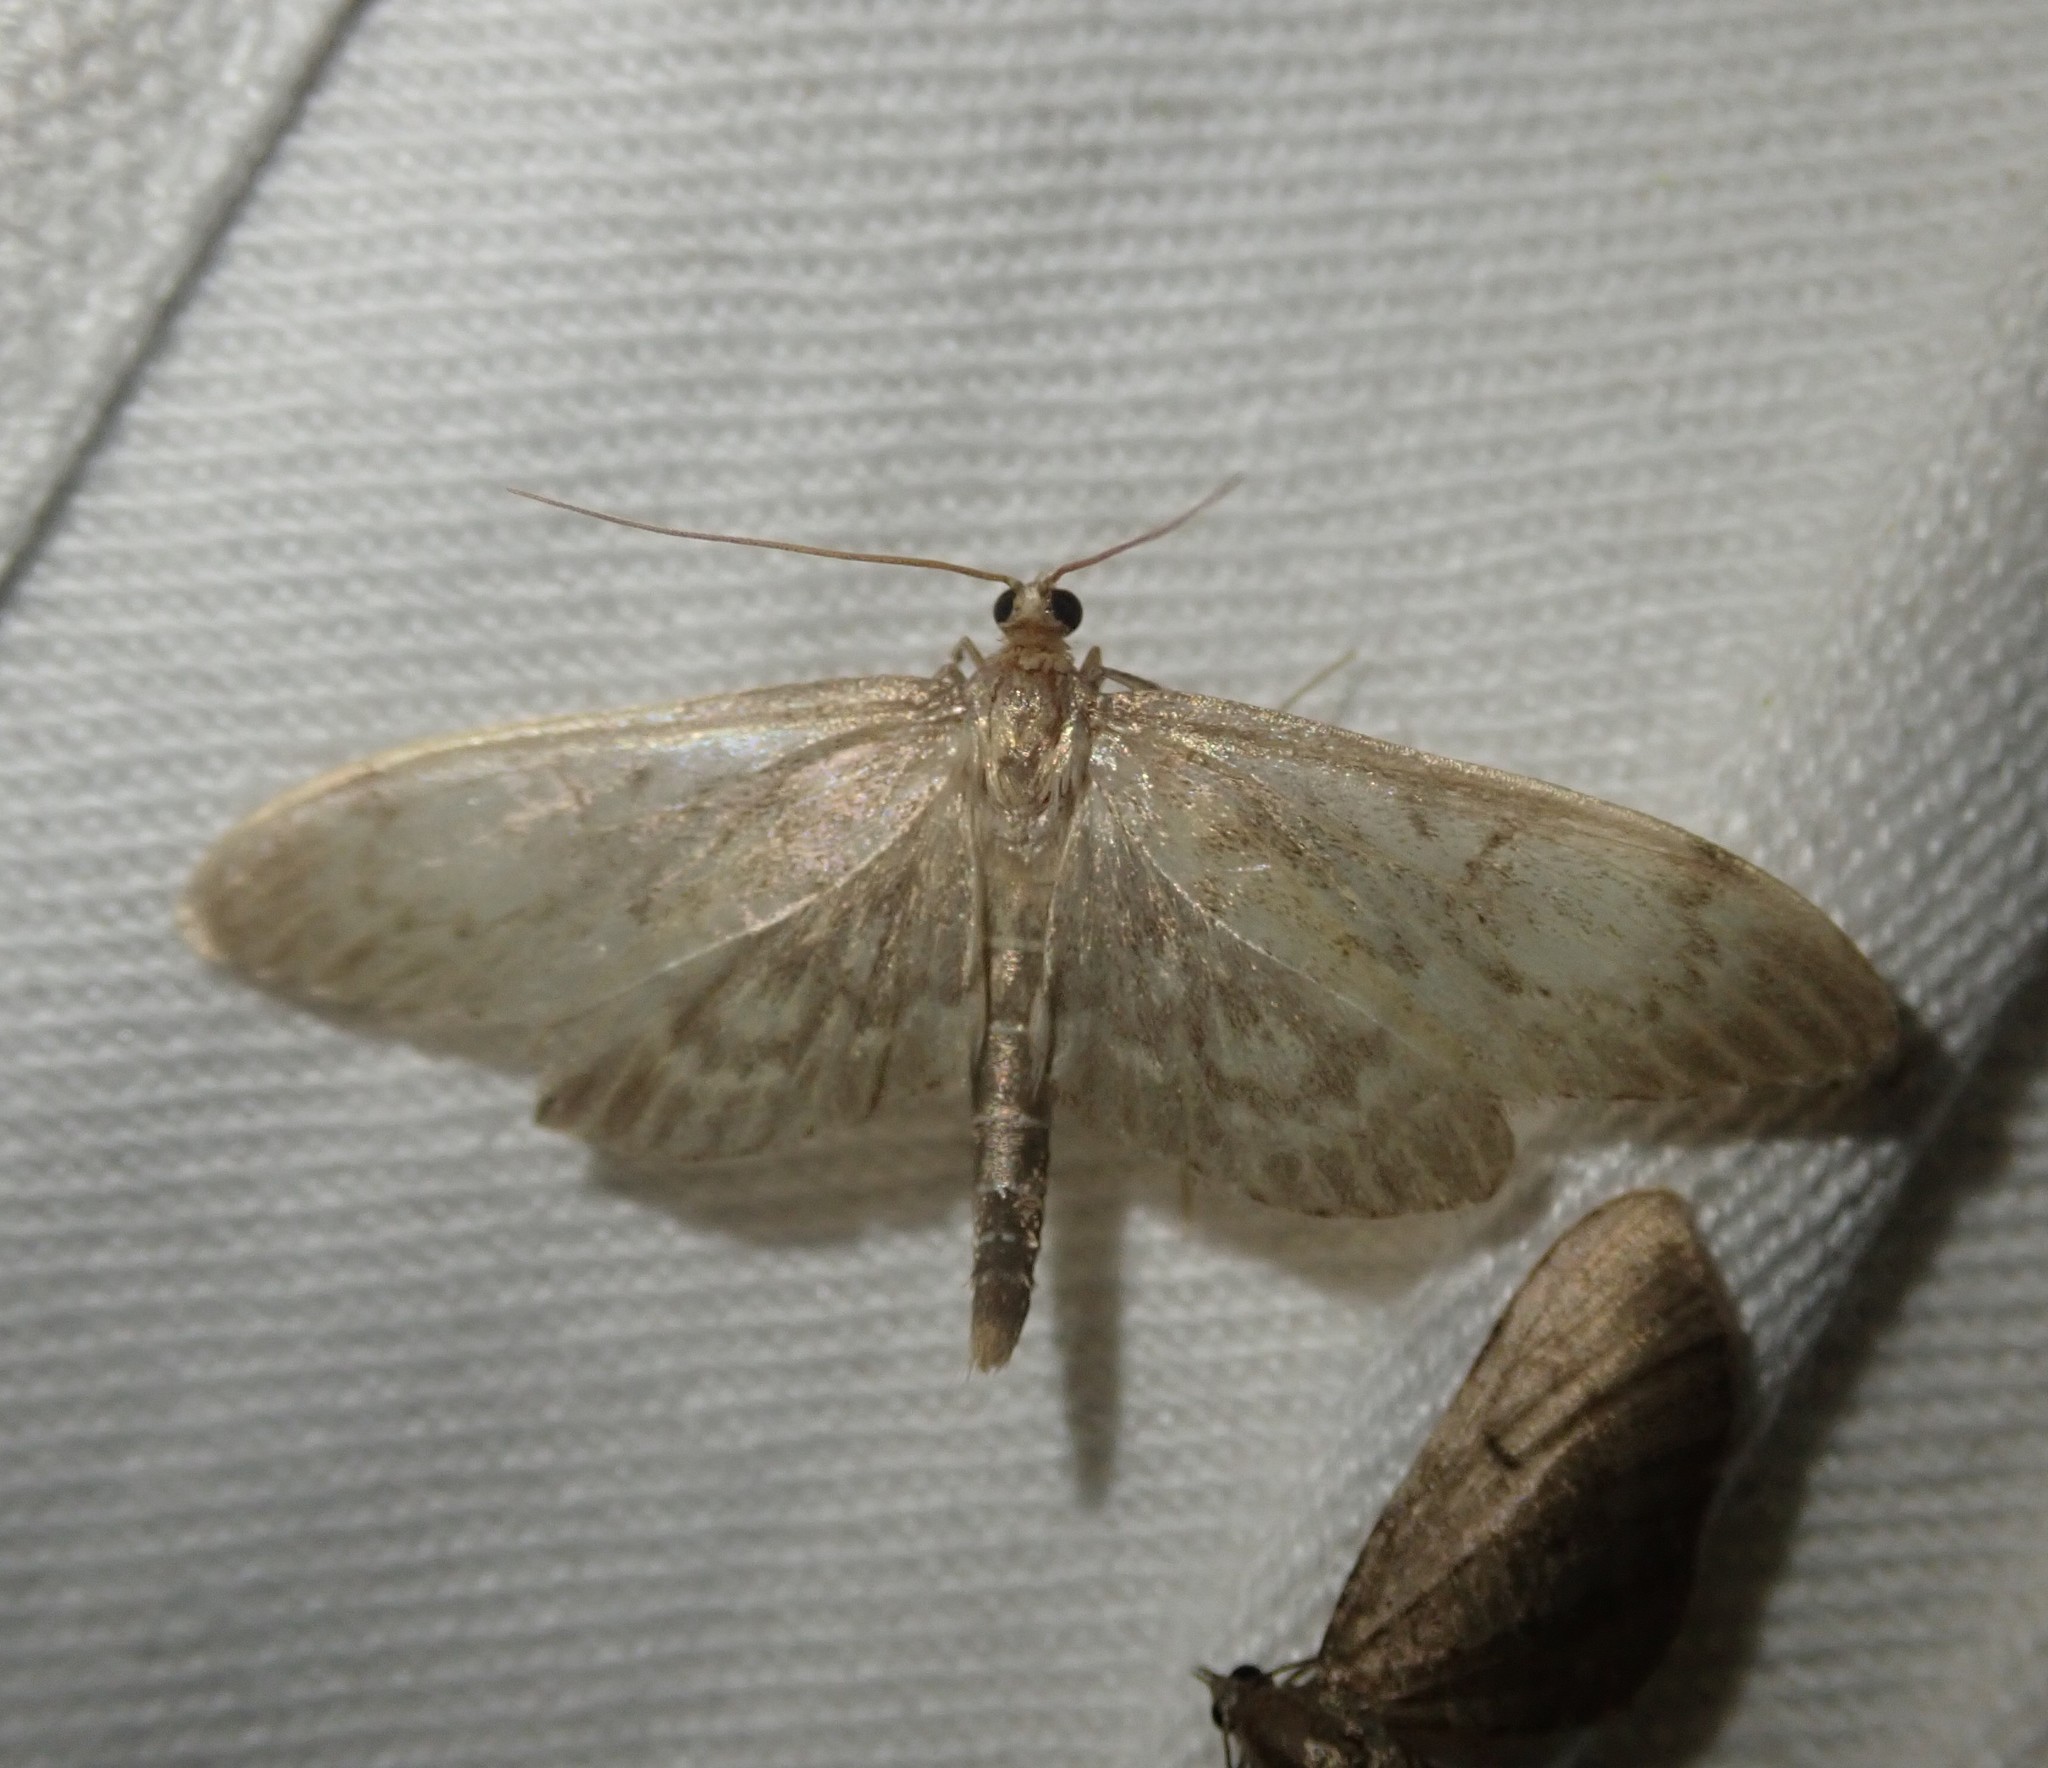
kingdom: Animalia
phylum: Arthropoda
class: Insecta
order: Lepidoptera
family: Crambidae
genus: Anania
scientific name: Anania lancealis
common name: Long-winged pearl
